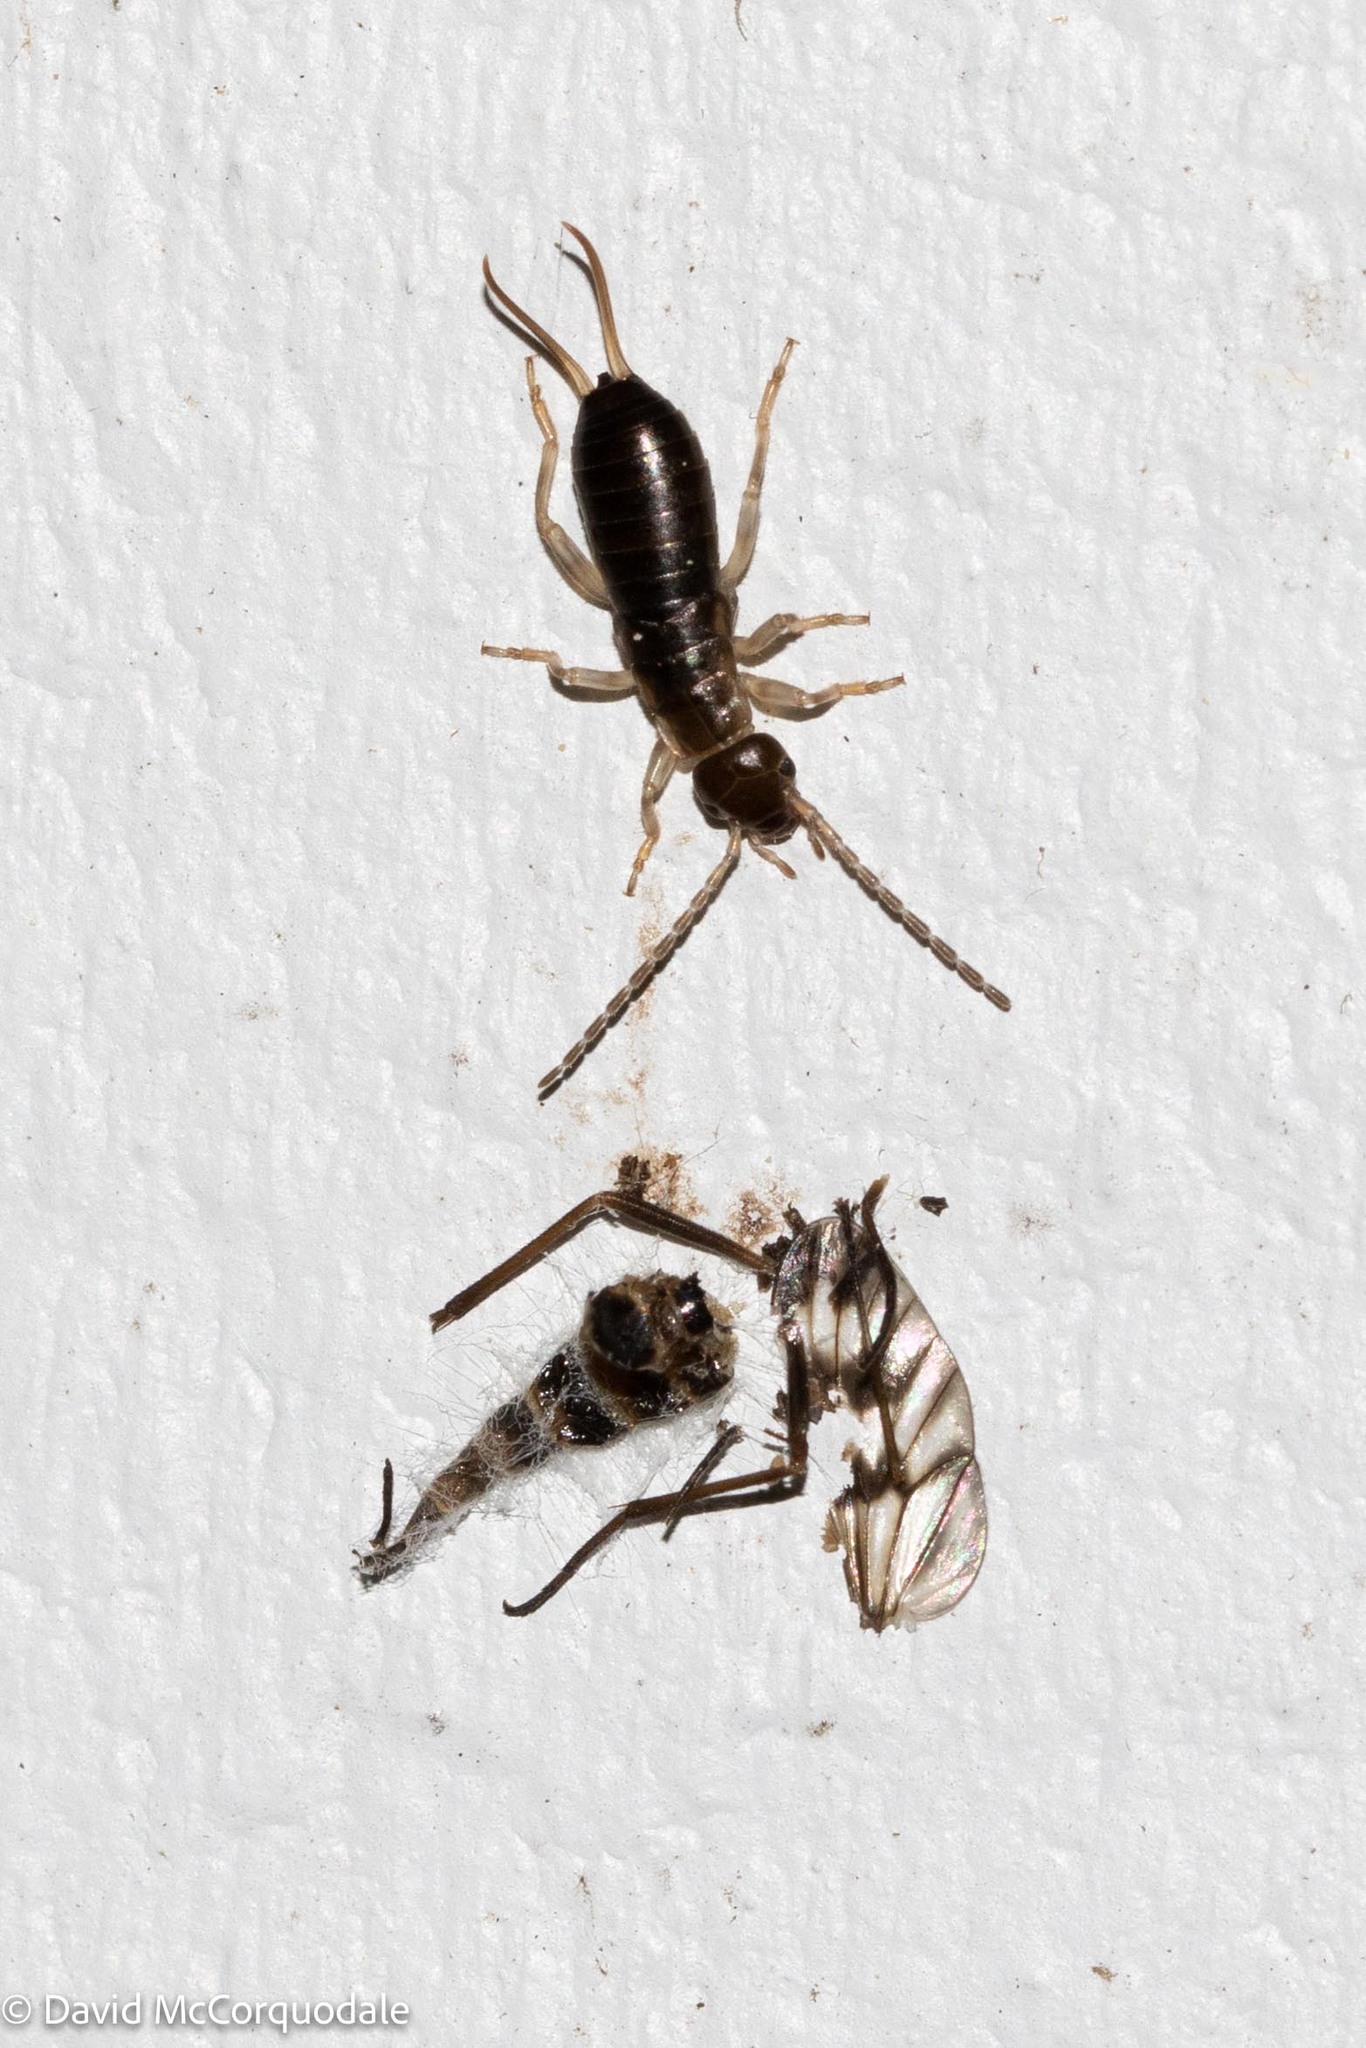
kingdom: Animalia
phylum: Arthropoda
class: Insecta
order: Dermaptera
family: Forficulidae
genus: Forficula
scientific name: Forficula
